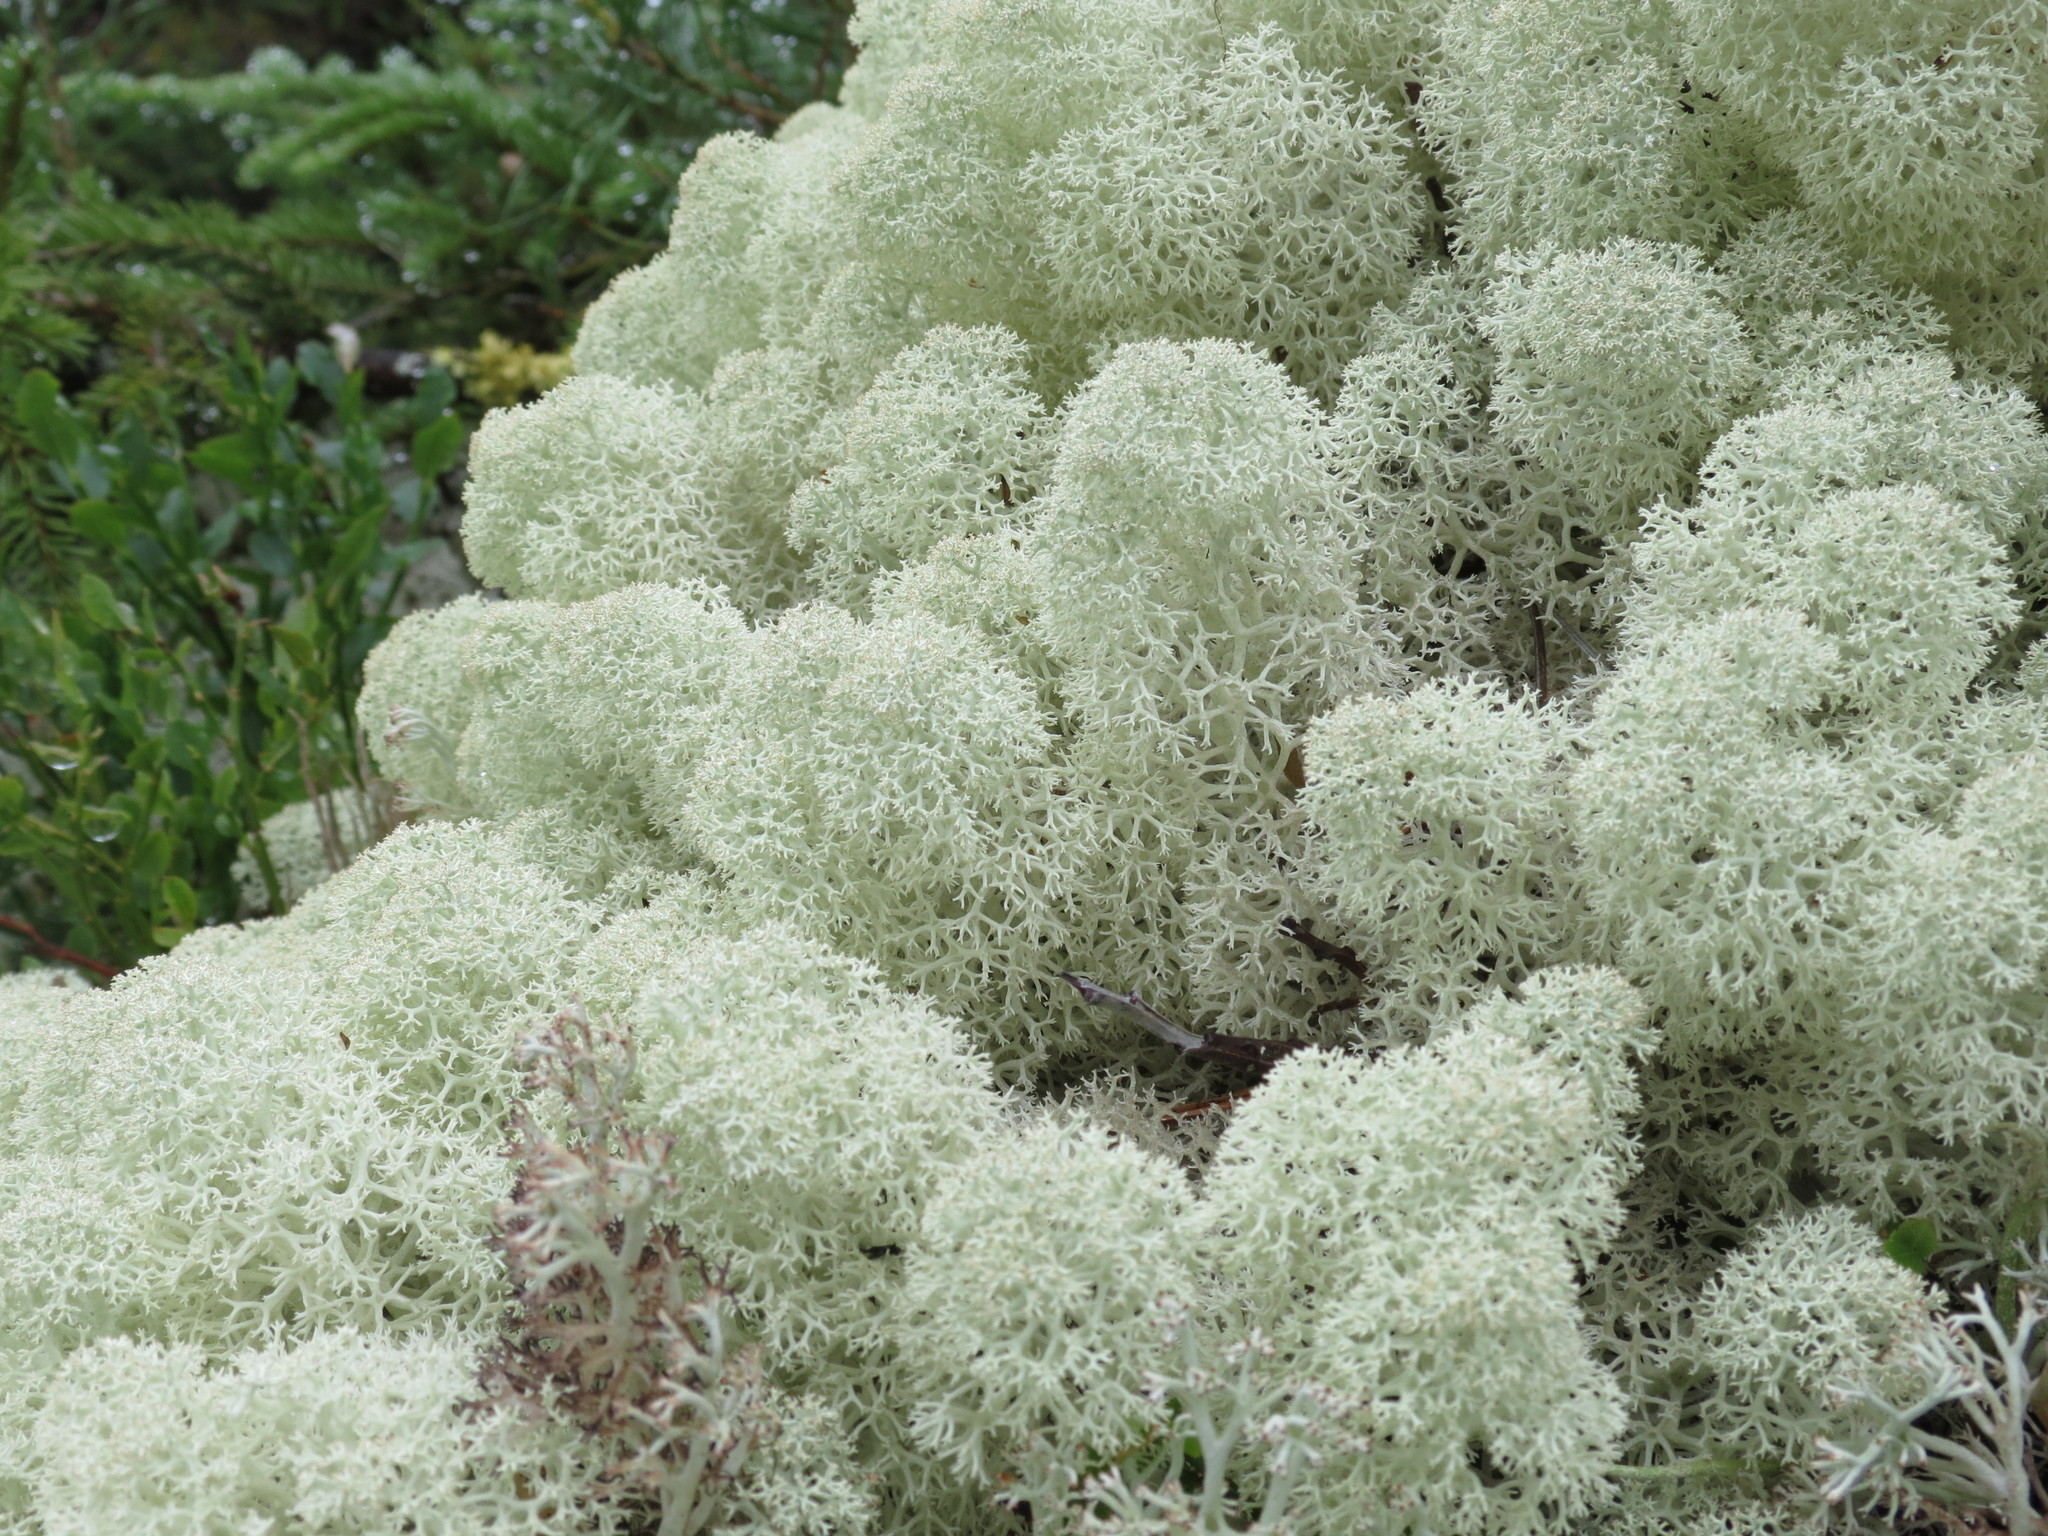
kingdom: Fungi
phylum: Ascomycota
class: Lecanoromycetes
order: Lecanorales
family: Cladoniaceae
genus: Cladonia
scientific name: Cladonia stellaris
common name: Star-tipped reindeer lichen
